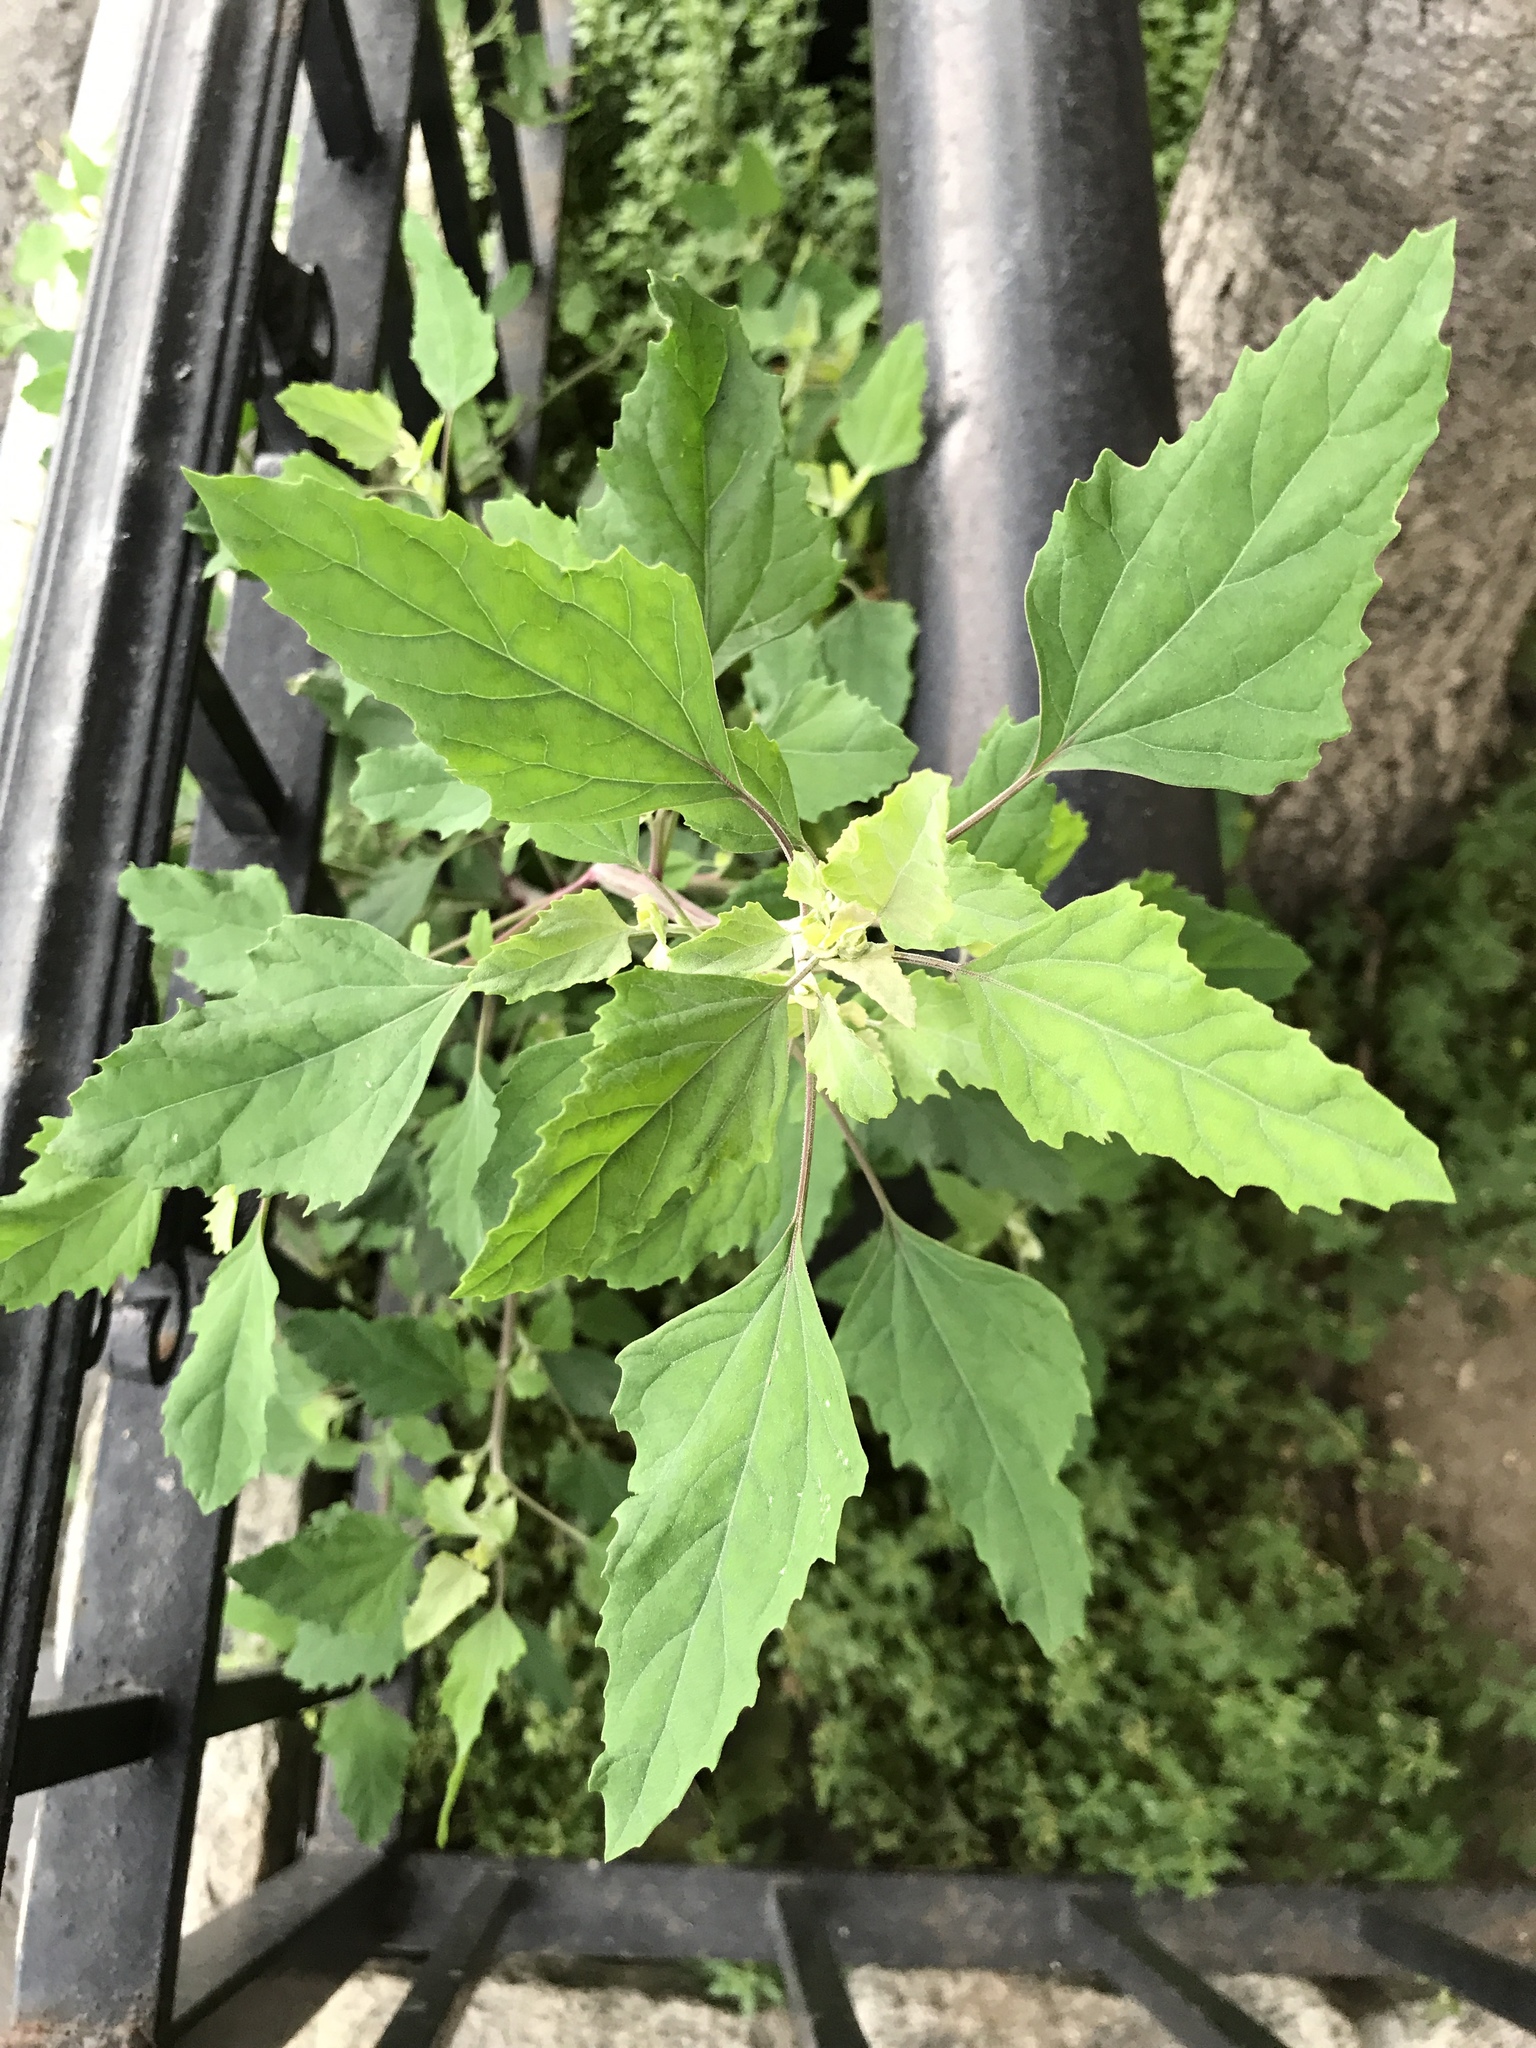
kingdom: Plantae
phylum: Tracheophyta
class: Magnoliopsida
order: Caryophyllales
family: Amaranthaceae
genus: Chenopodium
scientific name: Chenopodium album
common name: Fat-hen
